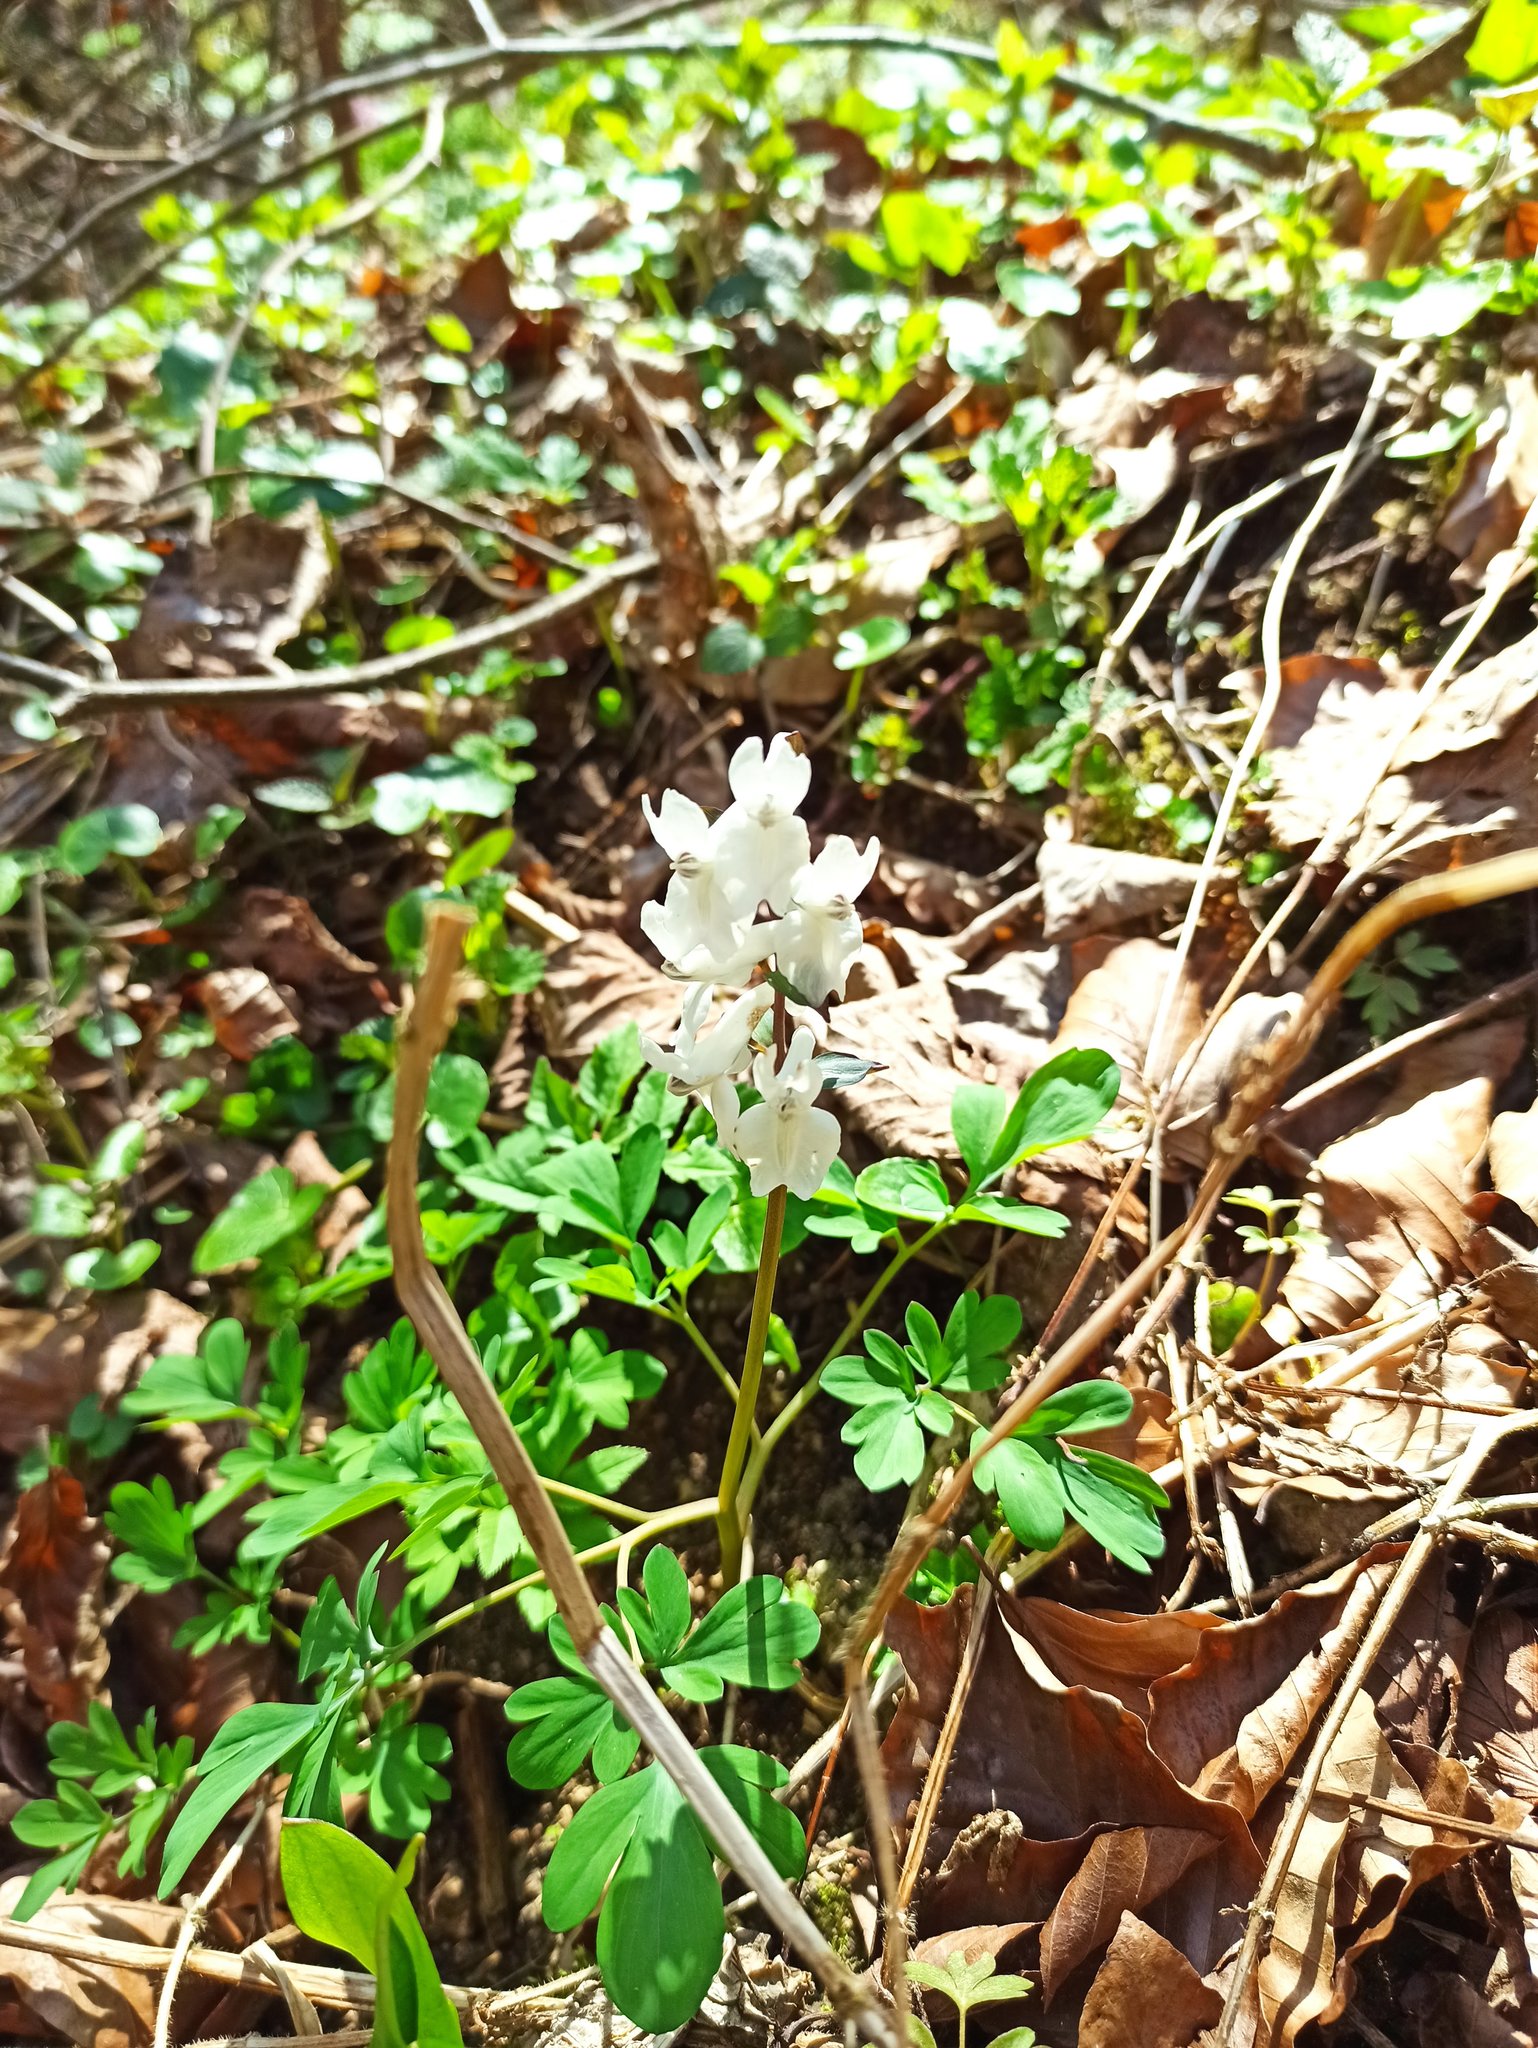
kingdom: Plantae
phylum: Tracheophyta
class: Magnoliopsida
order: Ranunculales
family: Papaveraceae
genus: Corydalis
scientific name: Corydalis cava
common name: Hollowroot
